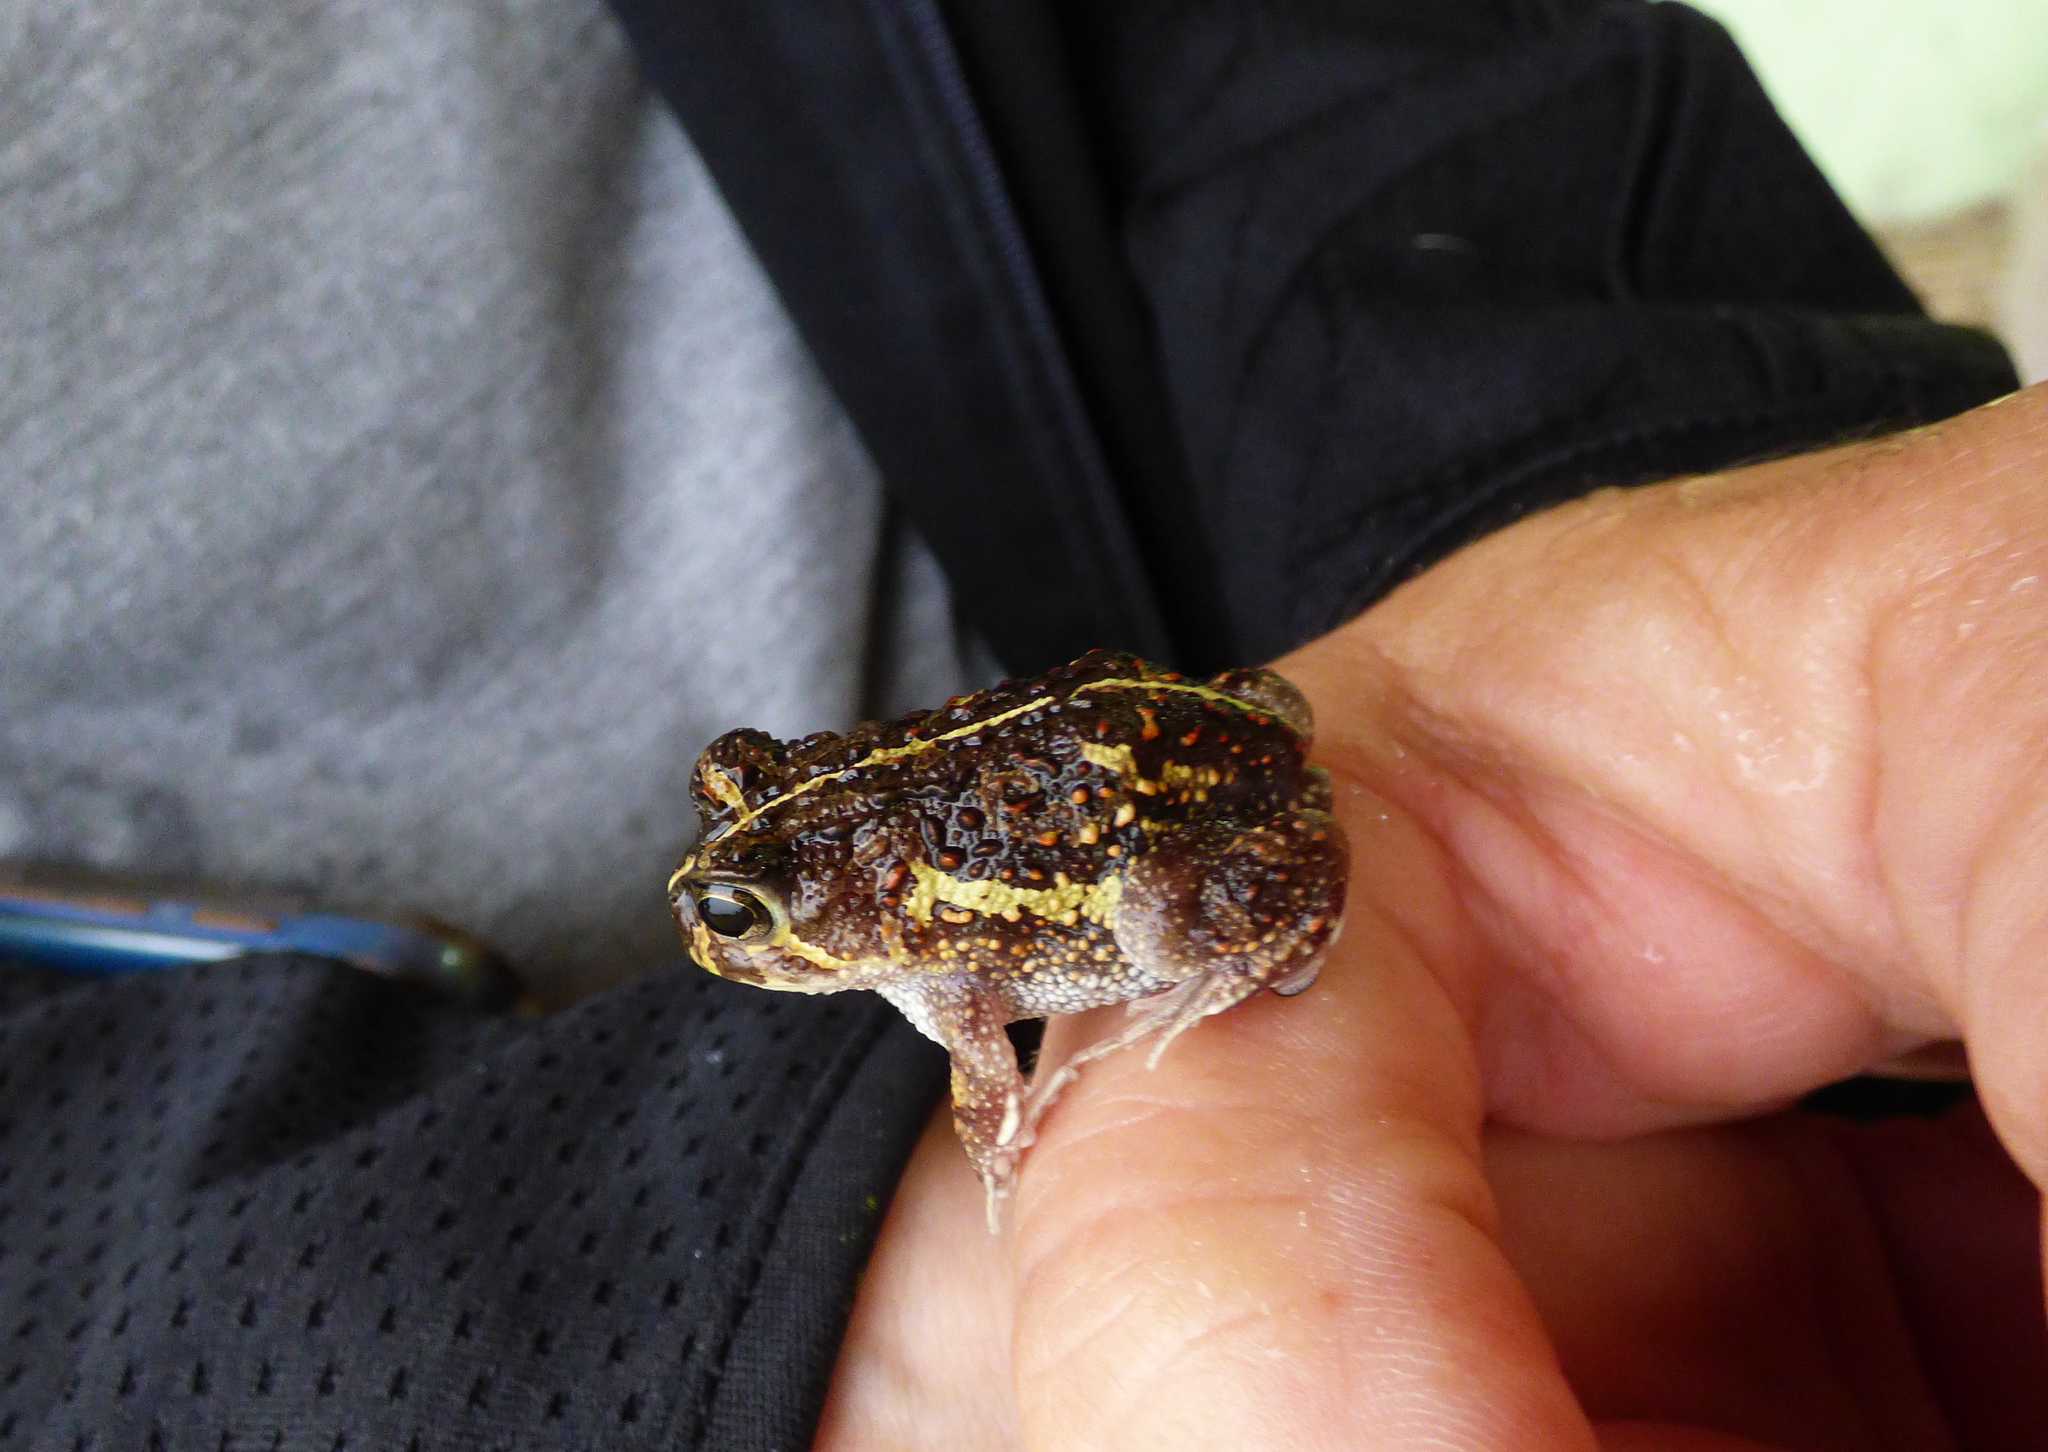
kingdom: Animalia
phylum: Chordata
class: Amphibia
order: Anura
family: Odontophrynidae
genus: Odontophrynus
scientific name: Odontophrynus
